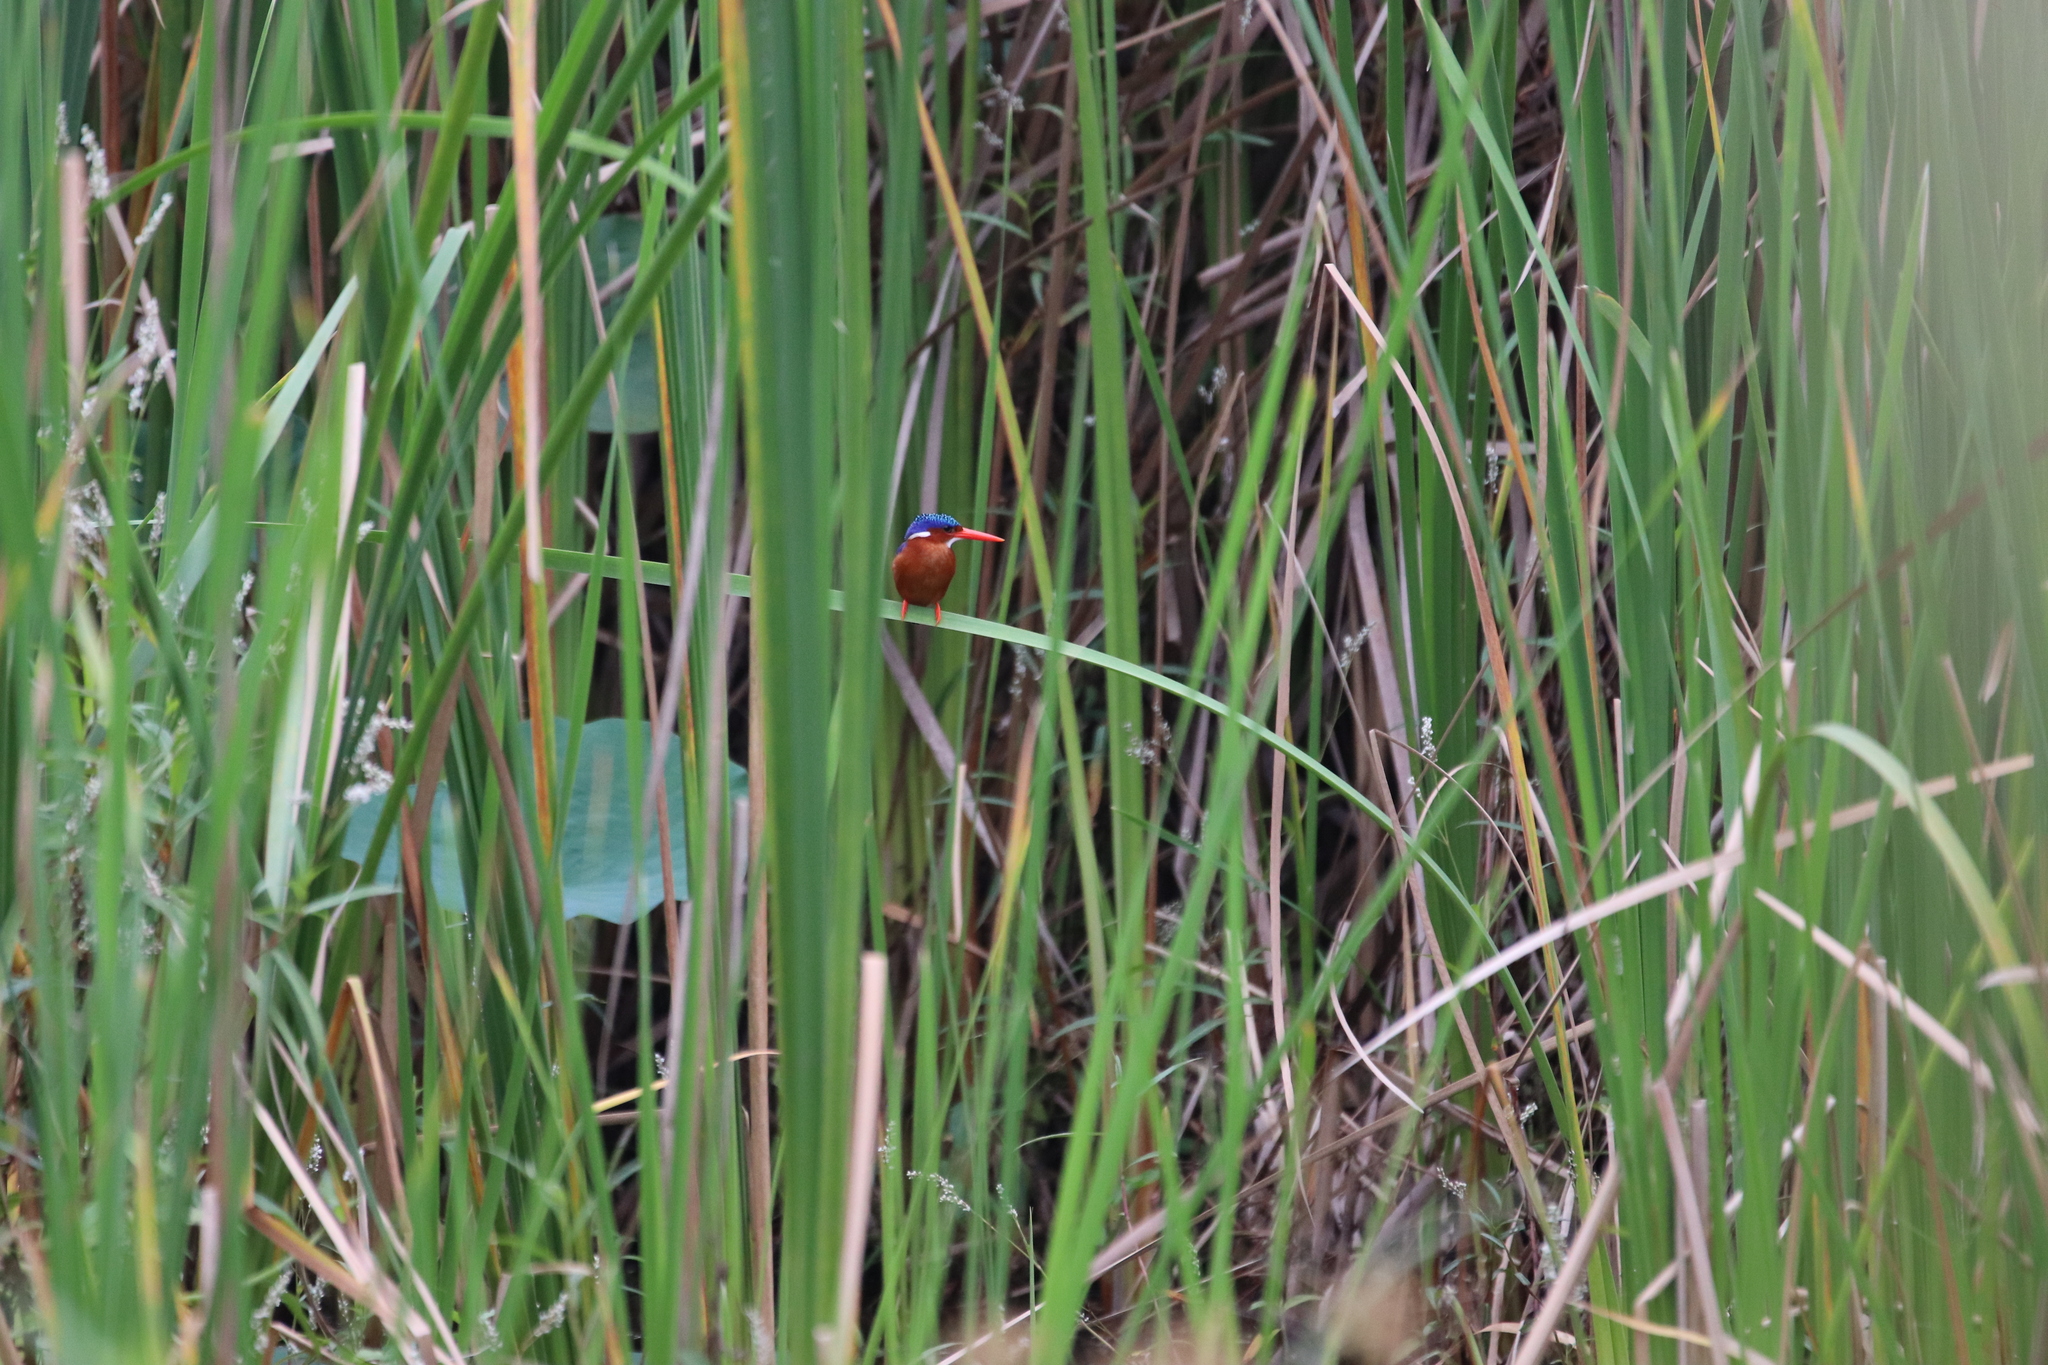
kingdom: Animalia
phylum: Chordata
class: Aves
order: Coraciiformes
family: Alcedinidae
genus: Corythornis
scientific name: Corythornis cristatus
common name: Malachite kingfisher
